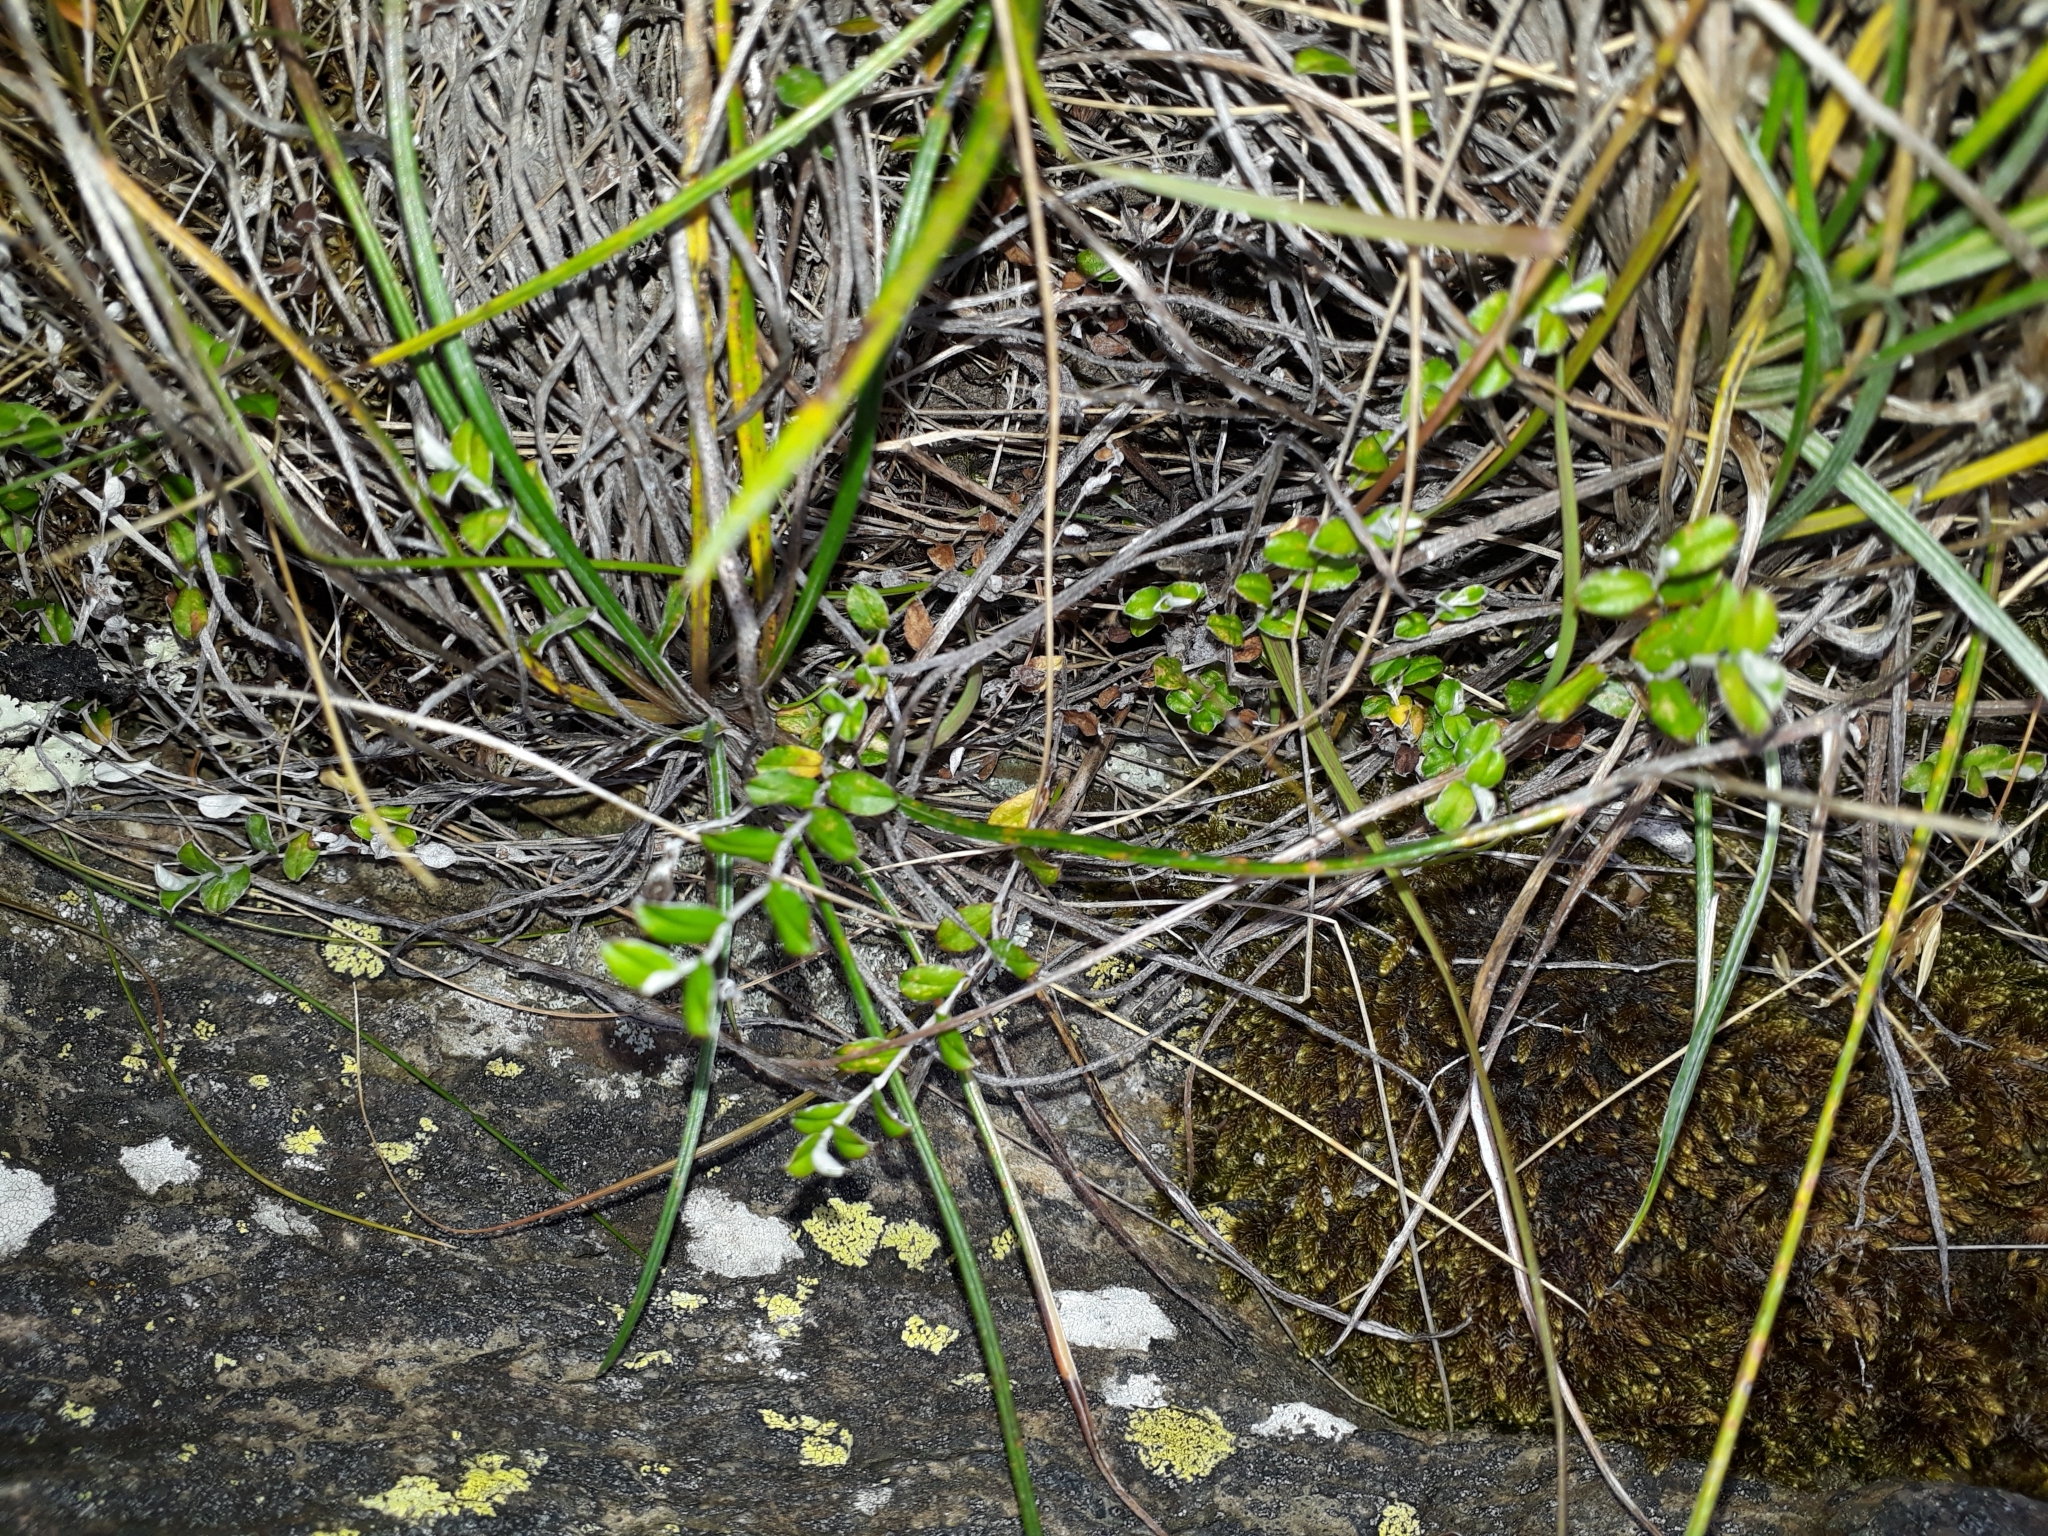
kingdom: Plantae
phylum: Tracheophyta
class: Magnoliopsida
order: Asterales
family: Asteraceae
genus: Helichrysum
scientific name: Helichrysum filicaule
